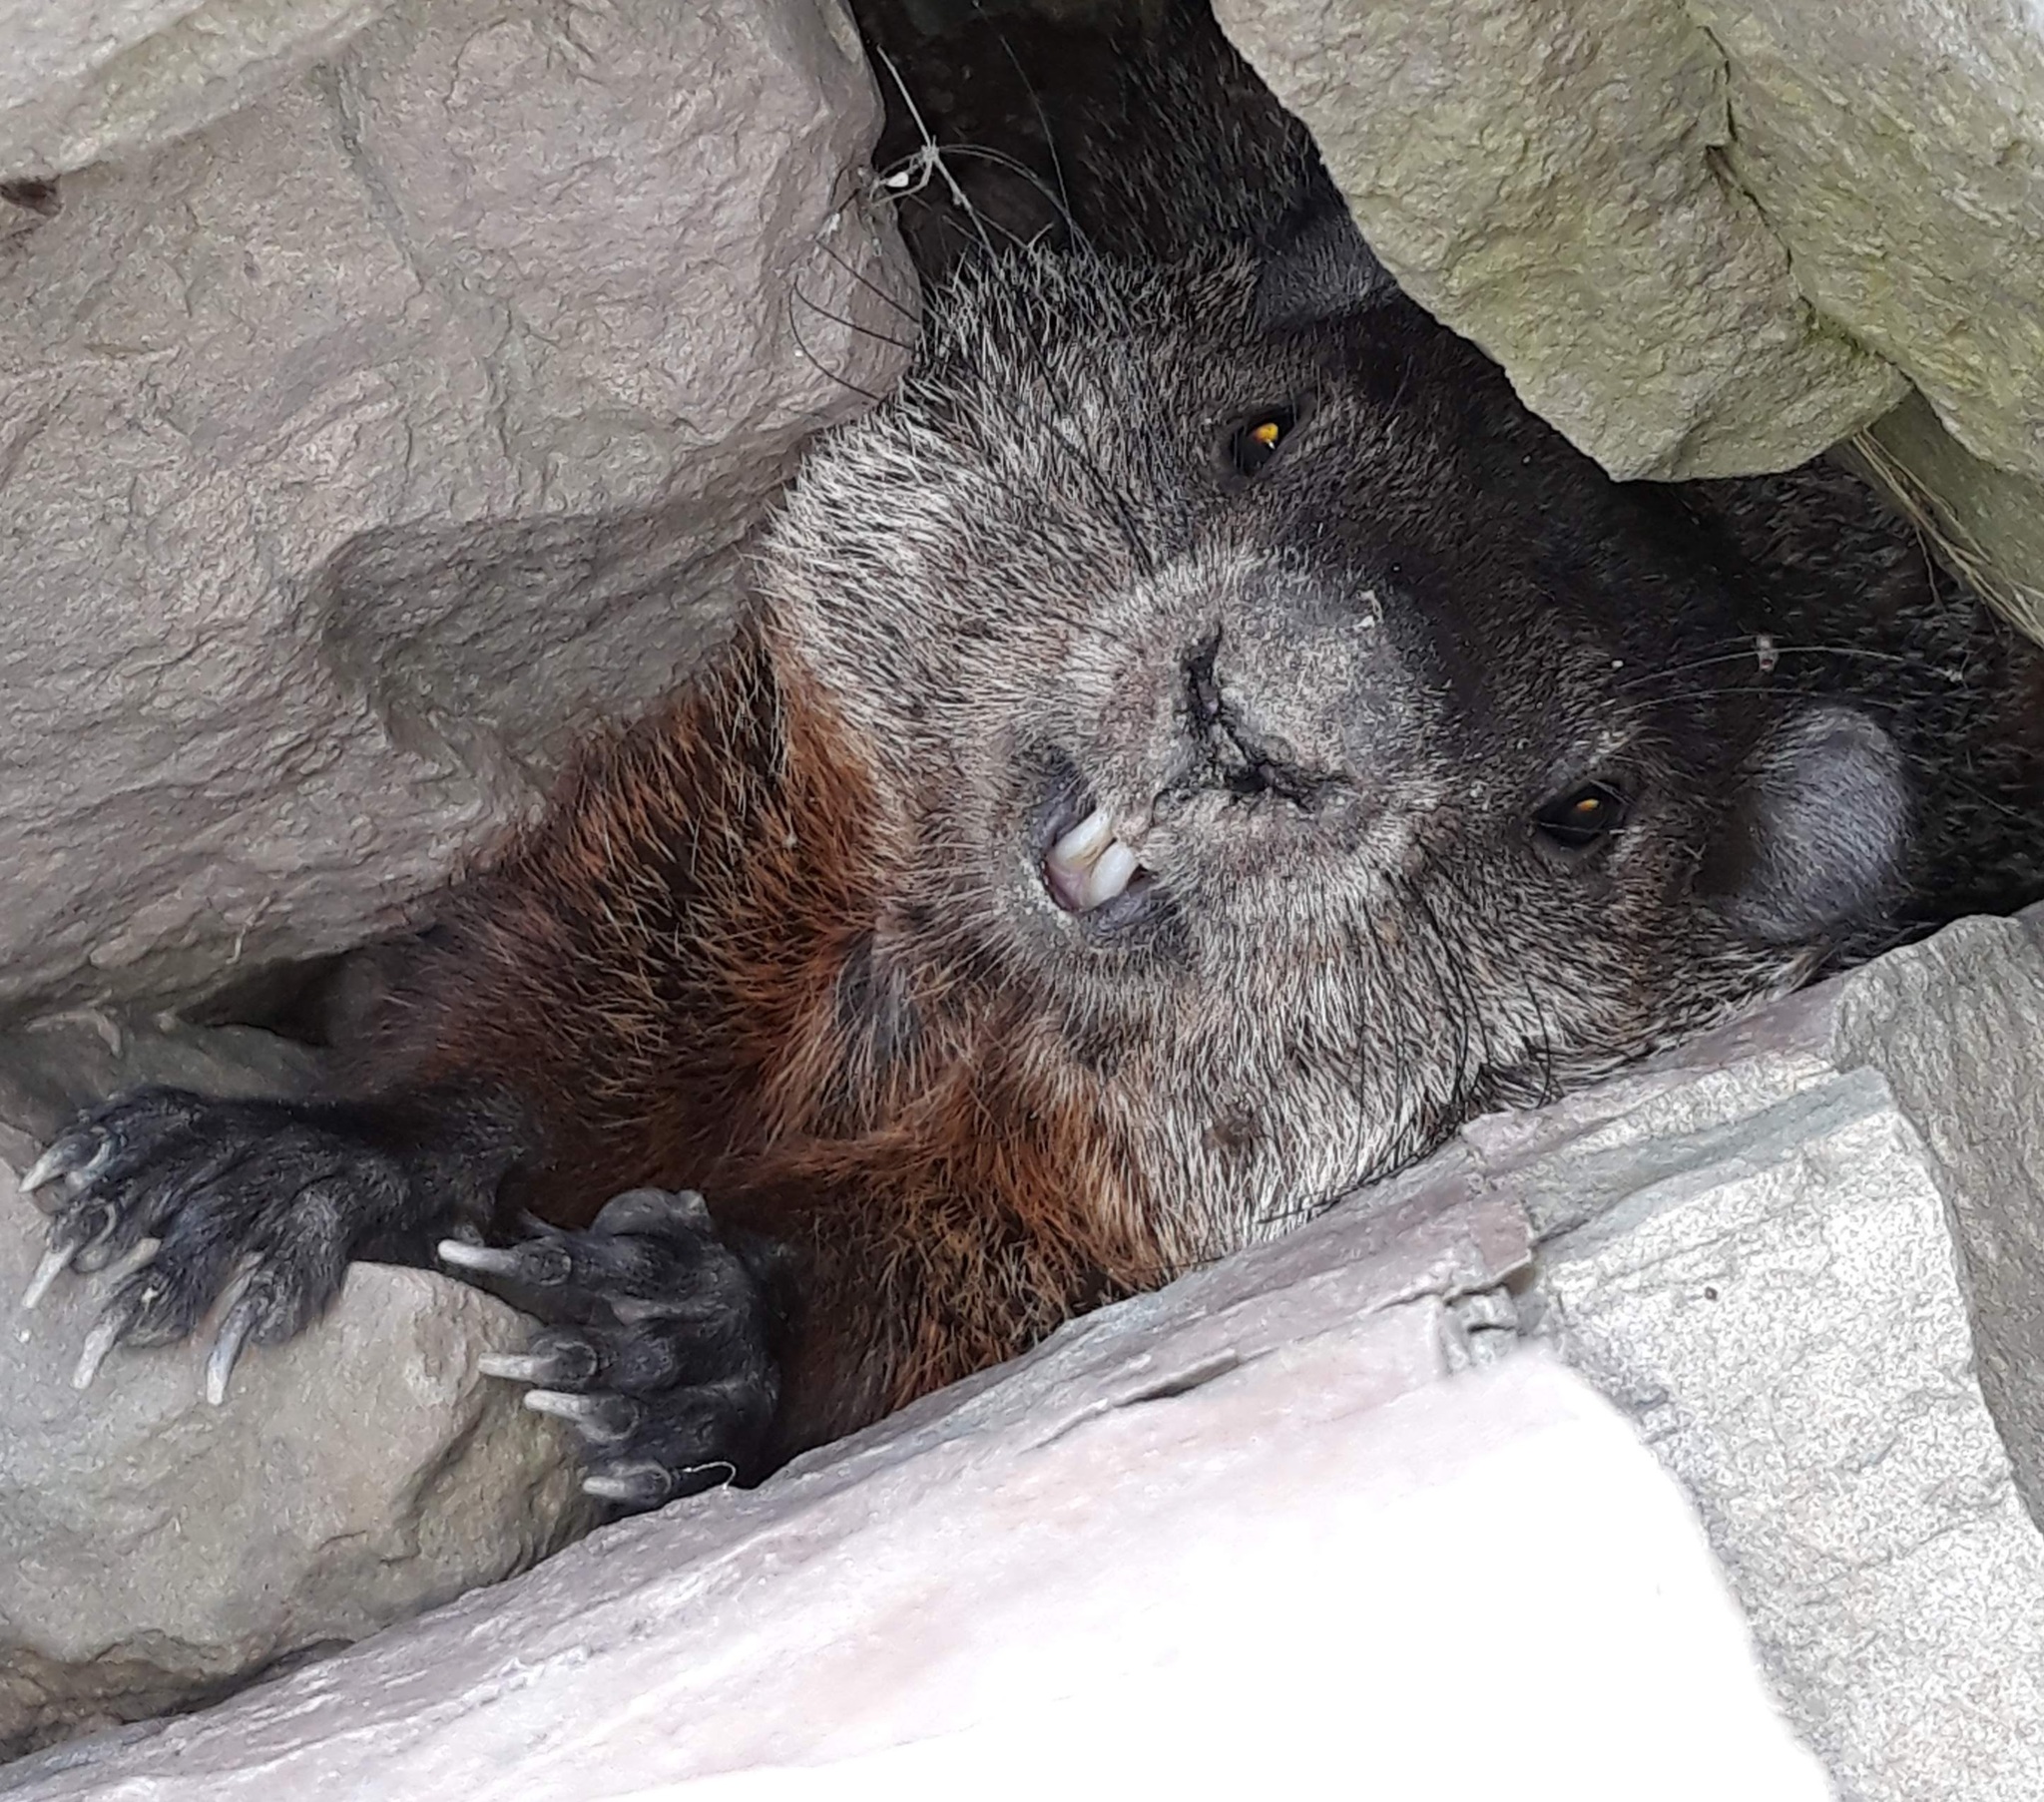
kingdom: Animalia
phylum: Chordata
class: Mammalia
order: Rodentia
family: Sciuridae
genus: Marmota
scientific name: Marmota monax
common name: Groundhog
